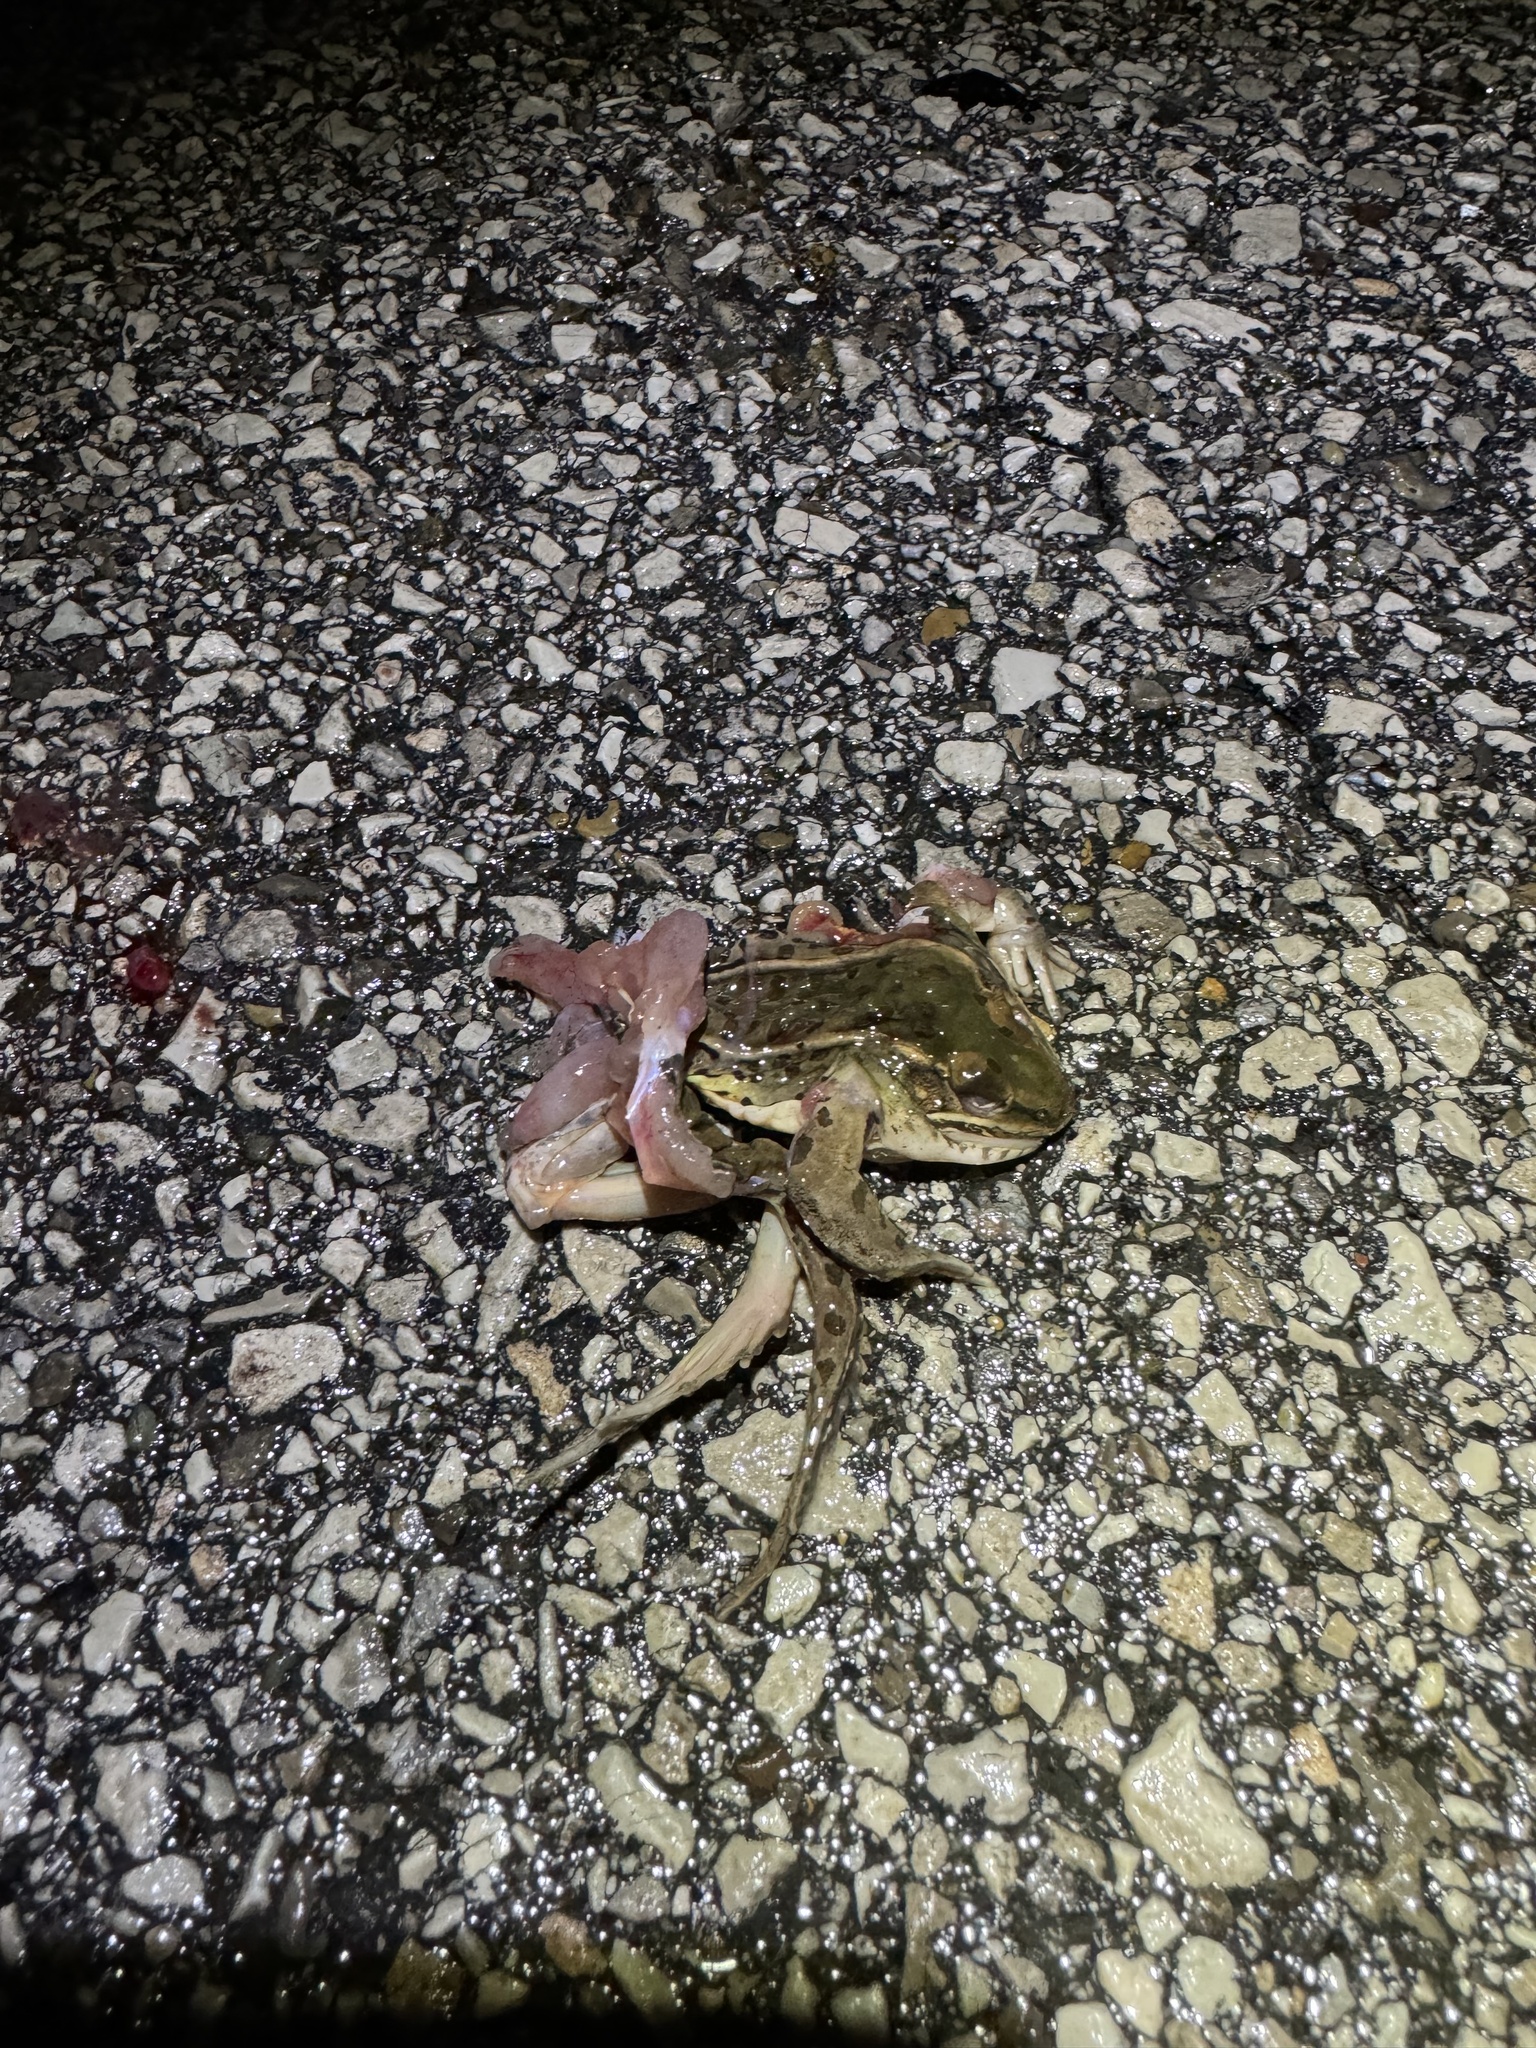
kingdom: Animalia
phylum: Chordata
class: Amphibia
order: Anura
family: Ranidae
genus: Lithobates
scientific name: Lithobates sphenocephalus
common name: Southern leopard frog
